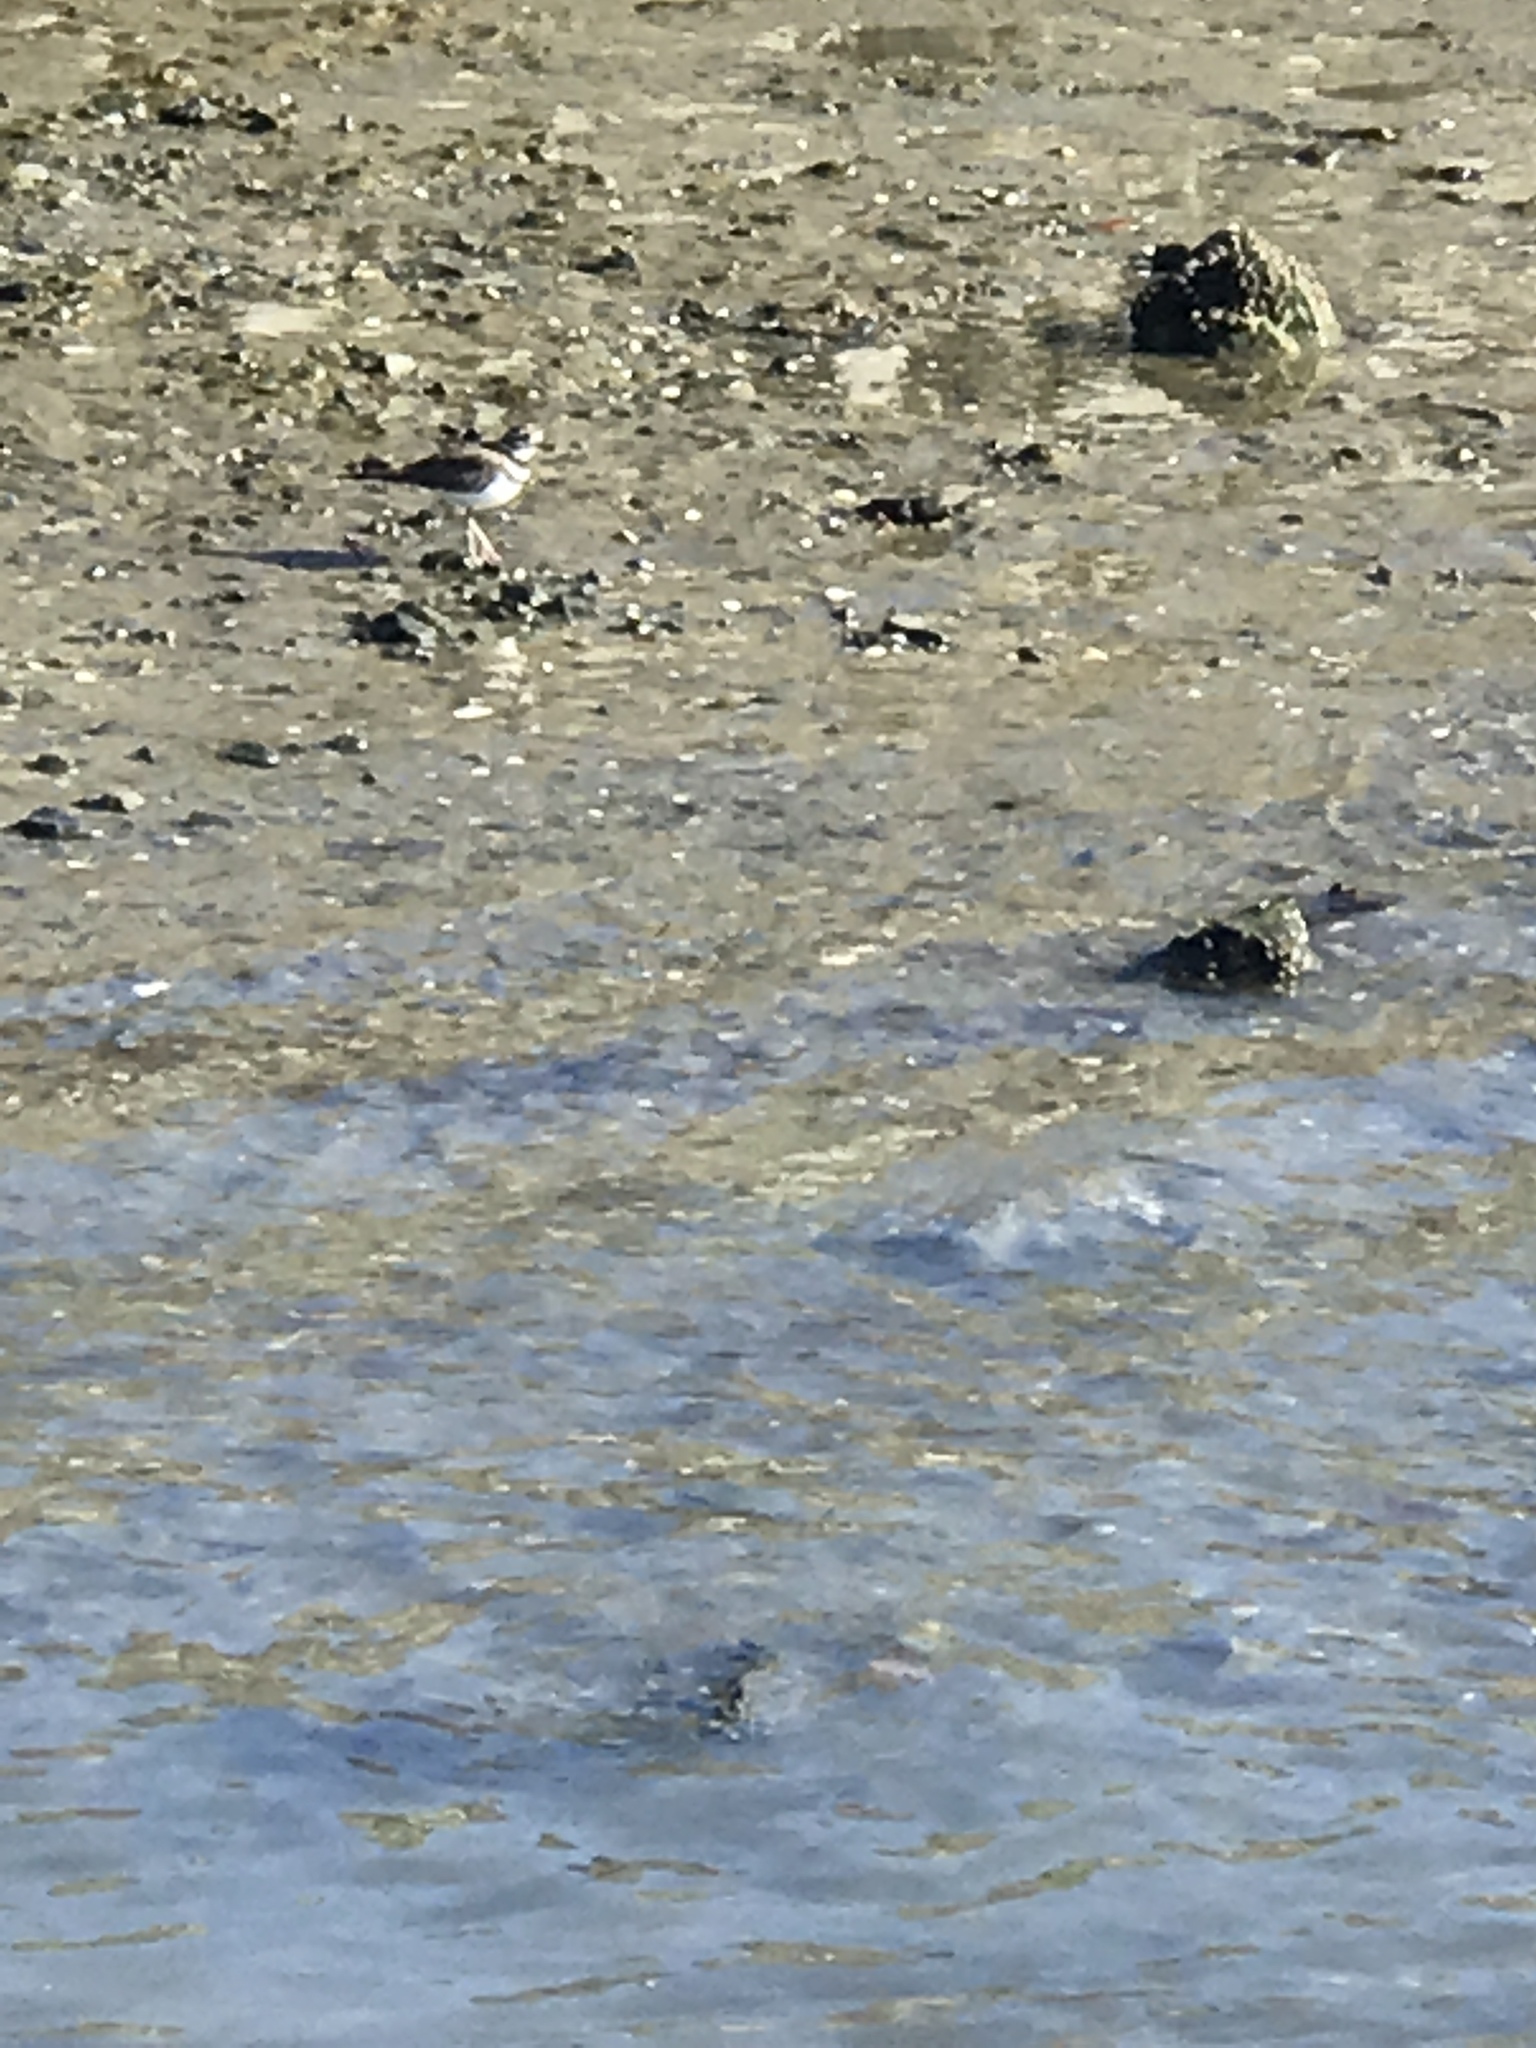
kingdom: Animalia
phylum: Chordata
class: Aves
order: Charadriiformes
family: Charadriidae
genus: Charadrius
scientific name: Charadrius vociferus
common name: Killdeer
